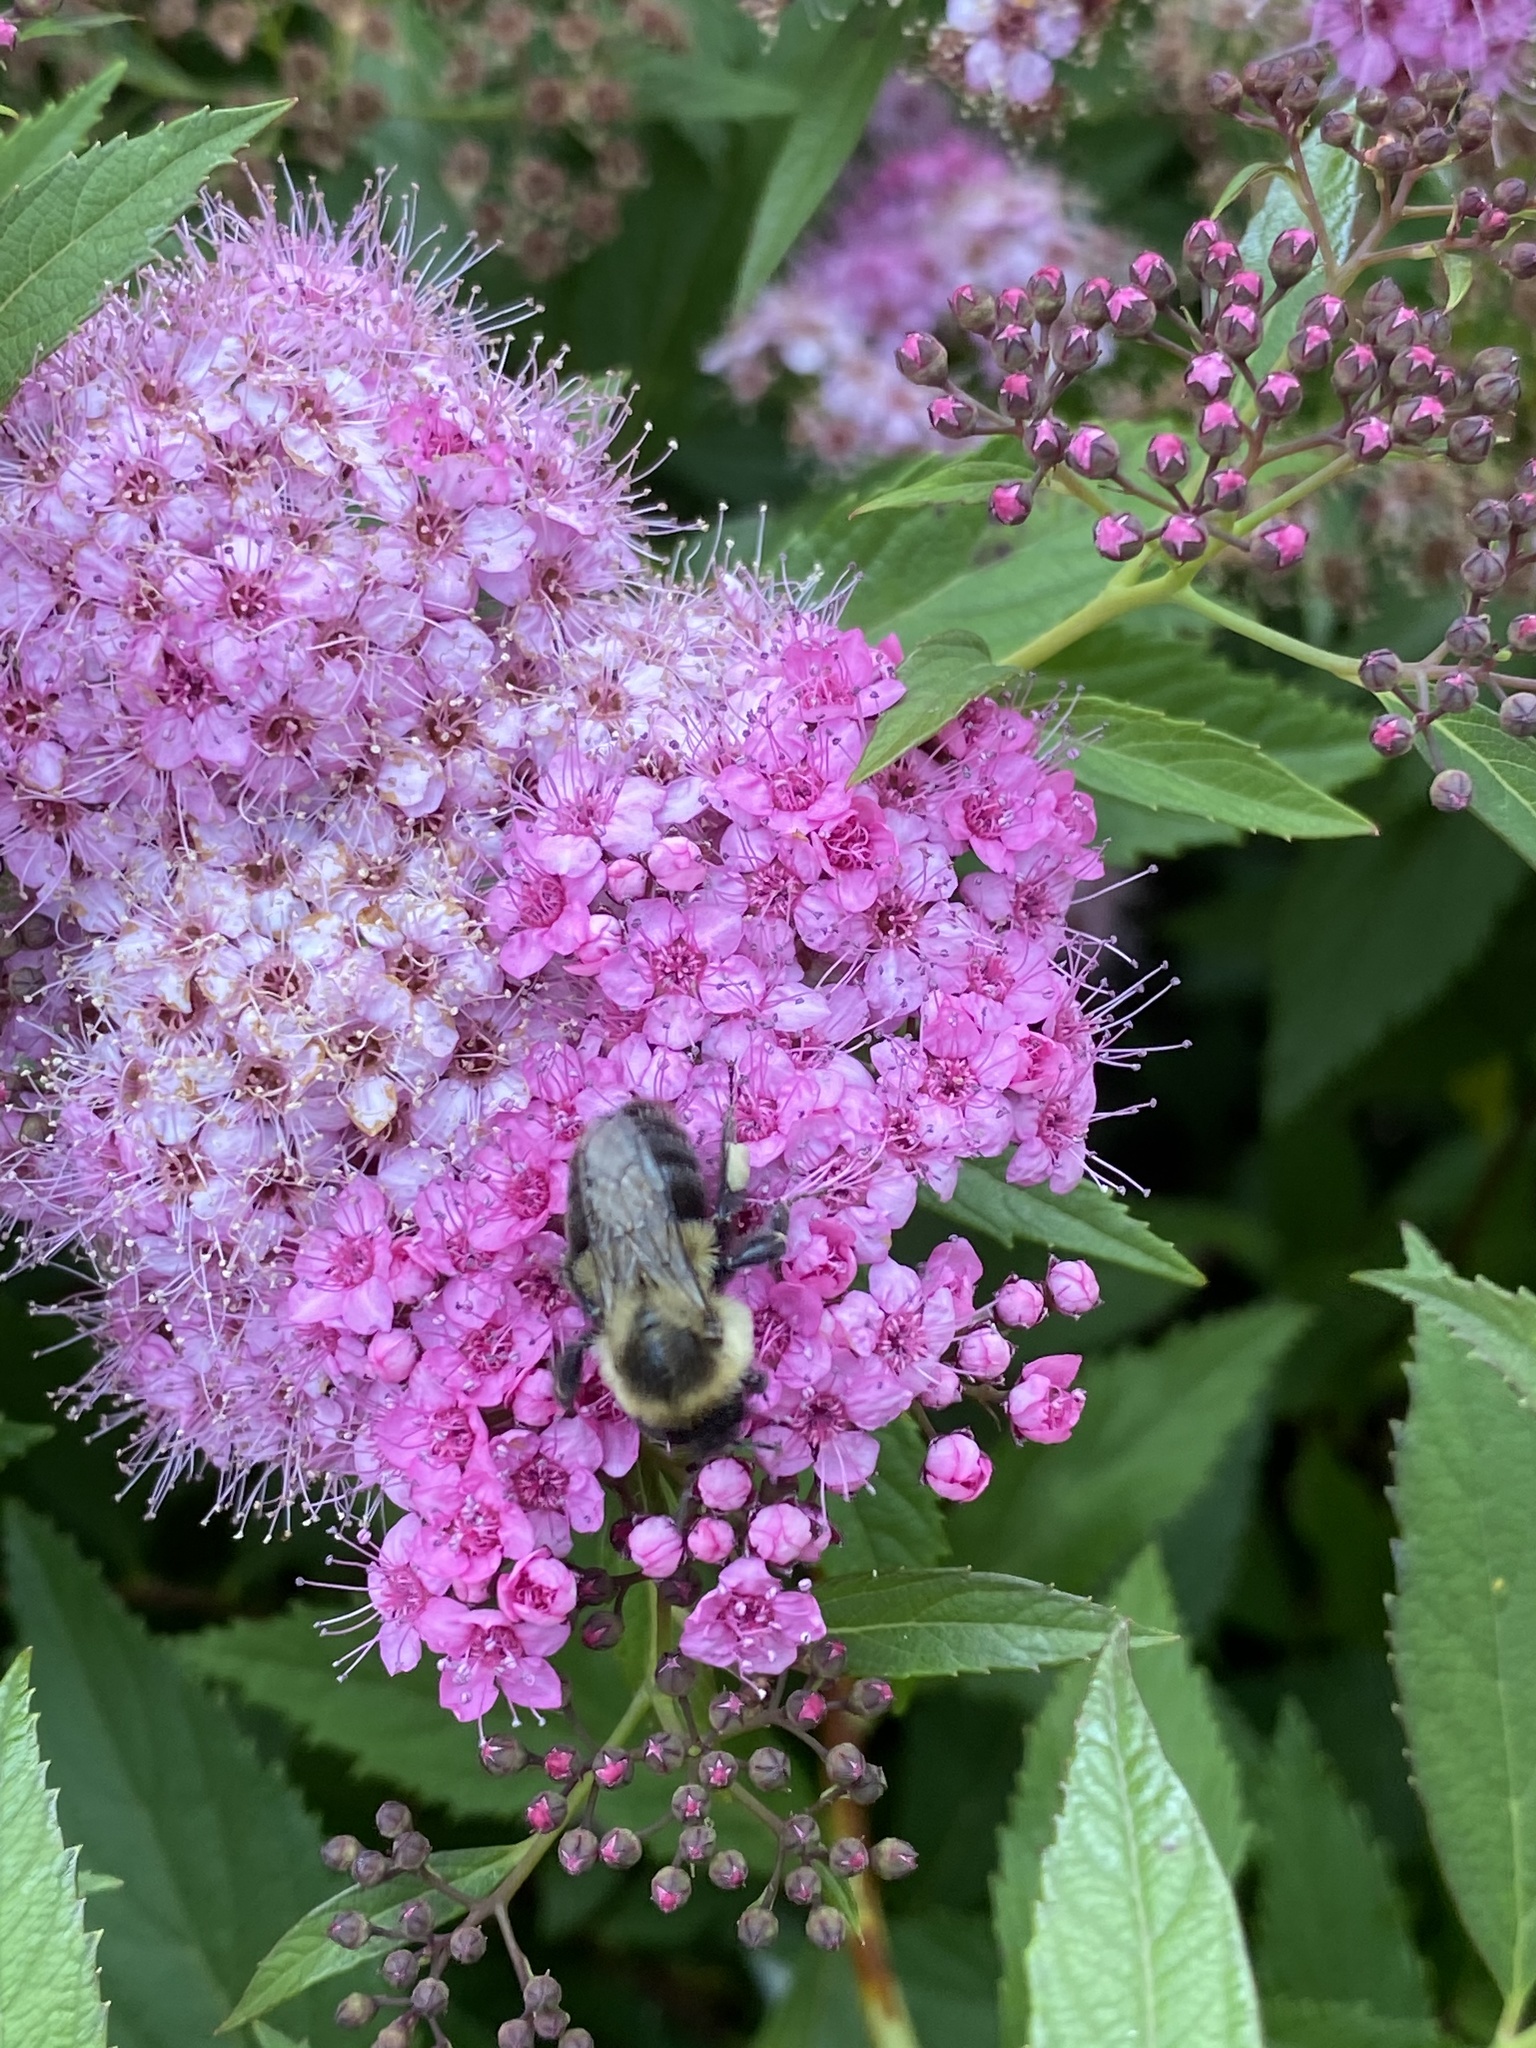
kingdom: Animalia
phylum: Arthropoda
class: Insecta
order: Hymenoptera
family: Apidae
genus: Bombus
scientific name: Bombus impatiens
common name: Common eastern bumble bee
